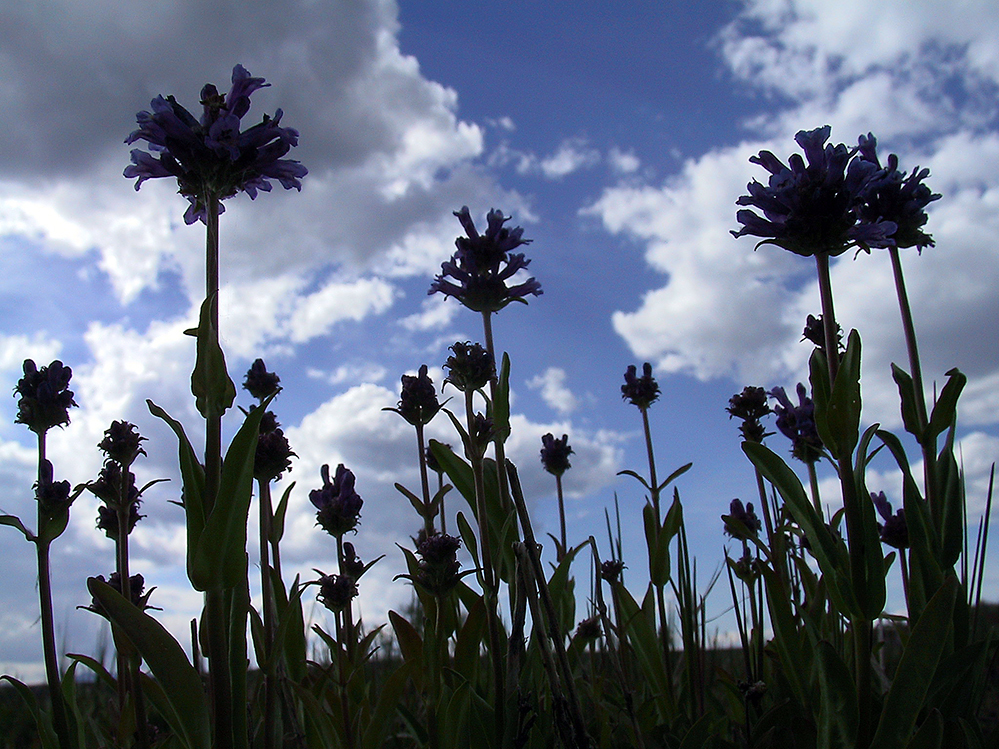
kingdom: Plantae
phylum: Tracheophyta
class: Magnoliopsida
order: Lamiales
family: Plantaginaceae
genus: Penstemon
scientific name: Penstemon rydbergii
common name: Rydberg's beardtongue
